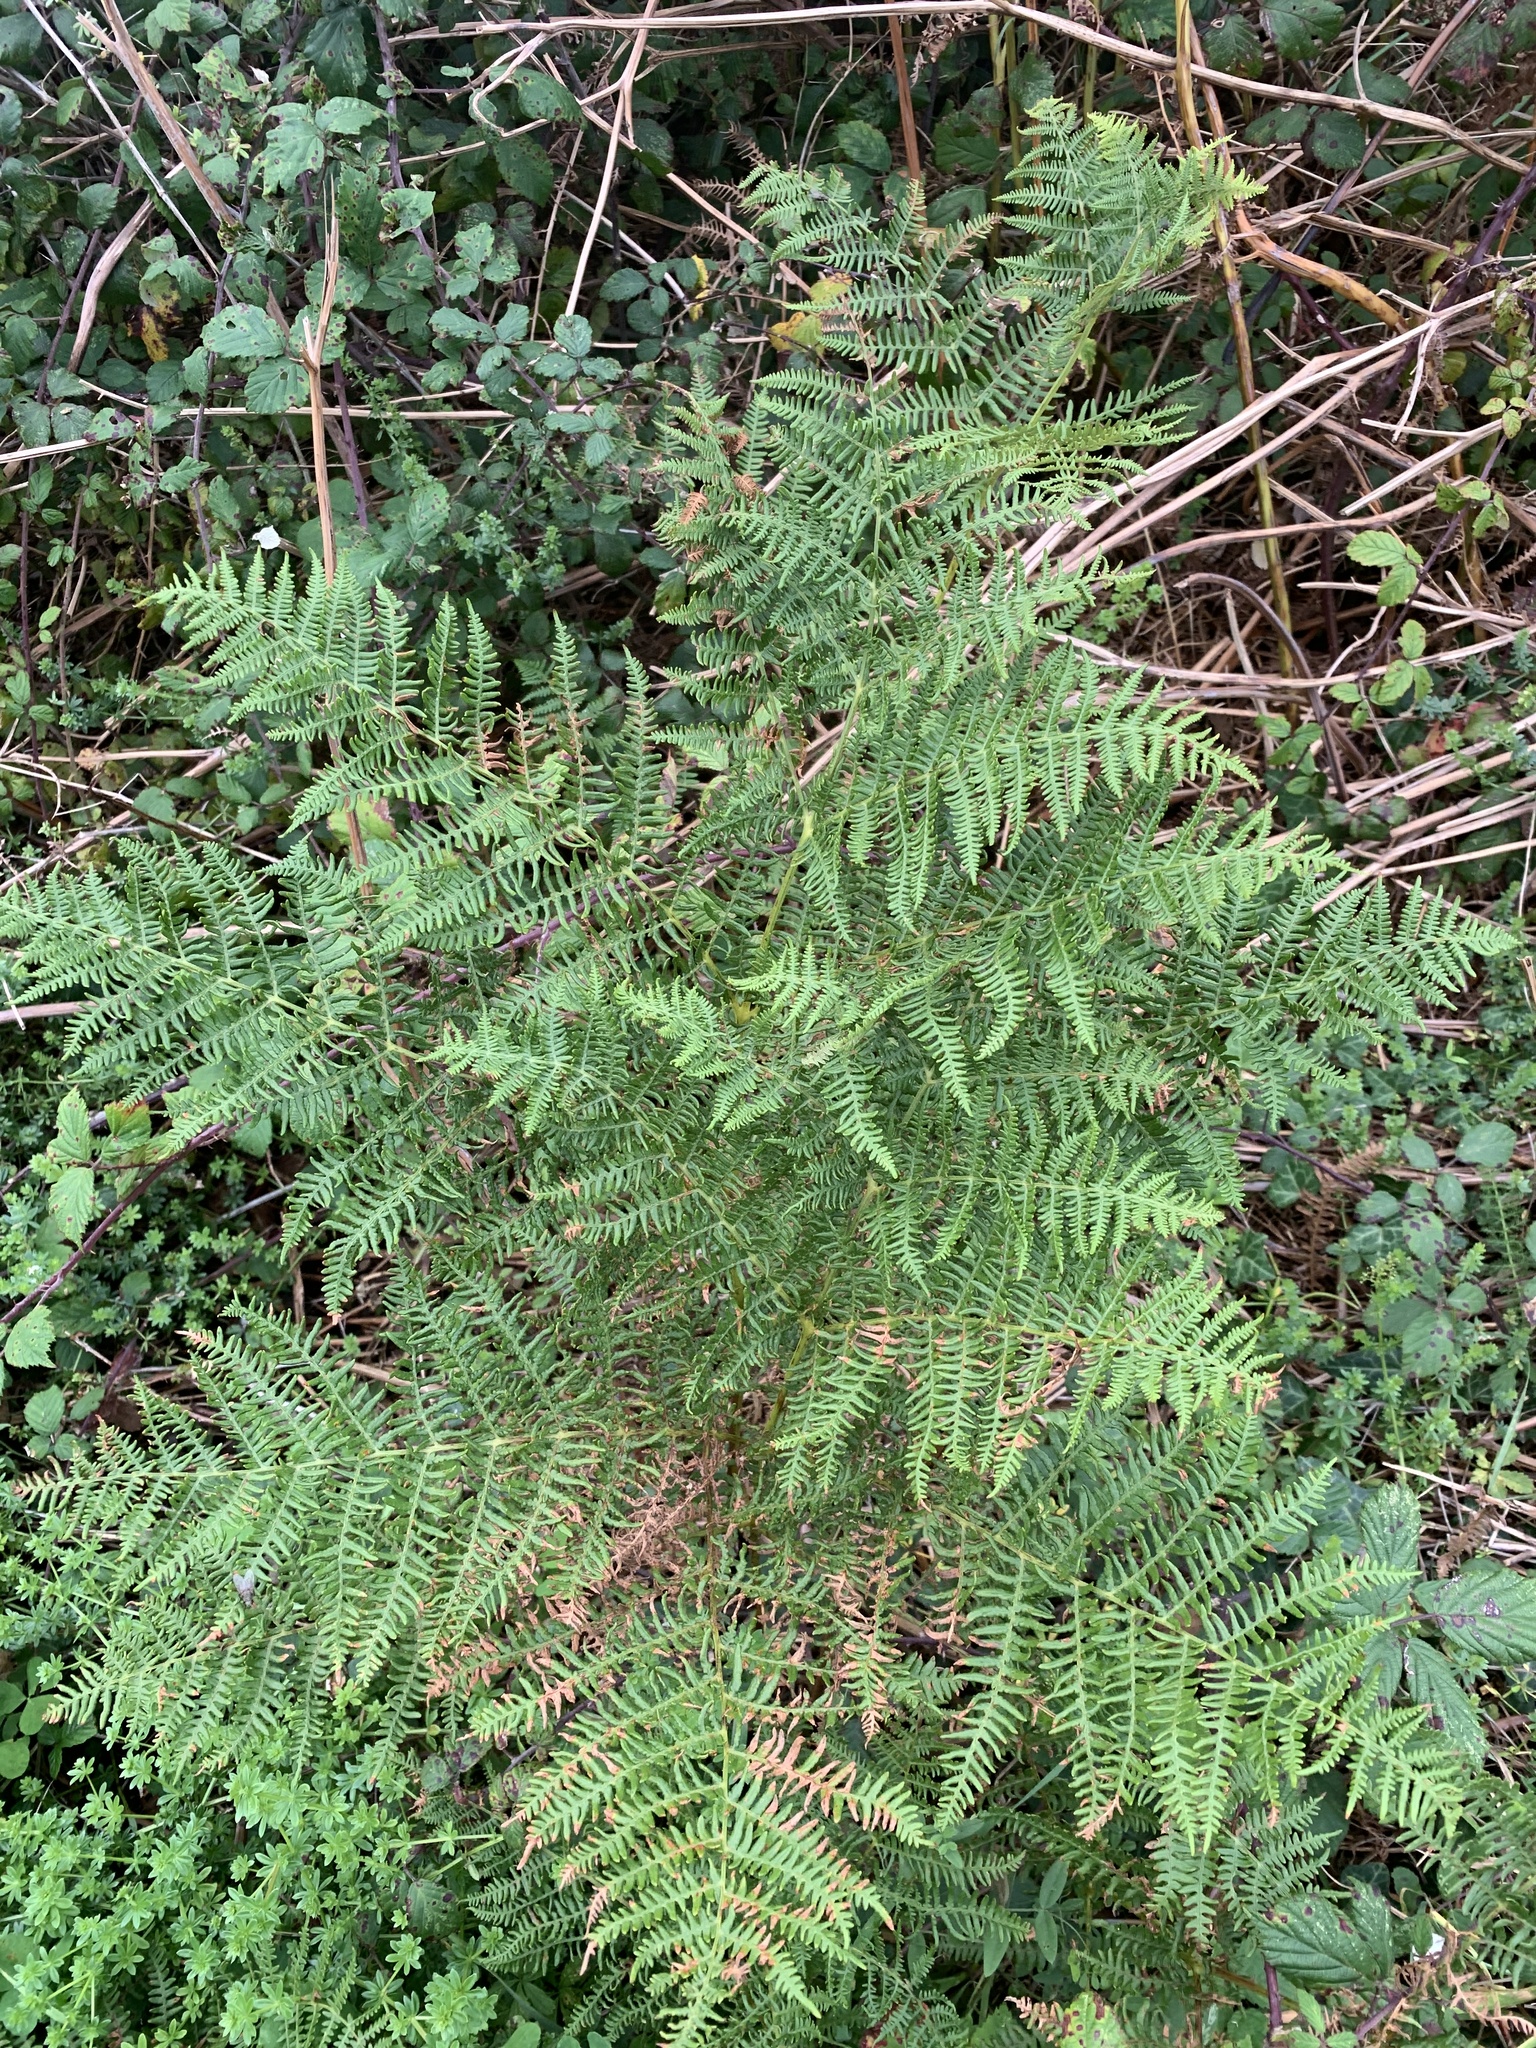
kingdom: Plantae
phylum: Tracheophyta
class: Polypodiopsida
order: Polypodiales
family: Dennstaedtiaceae
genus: Pteridium
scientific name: Pteridium aquilinum
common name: Bracken
